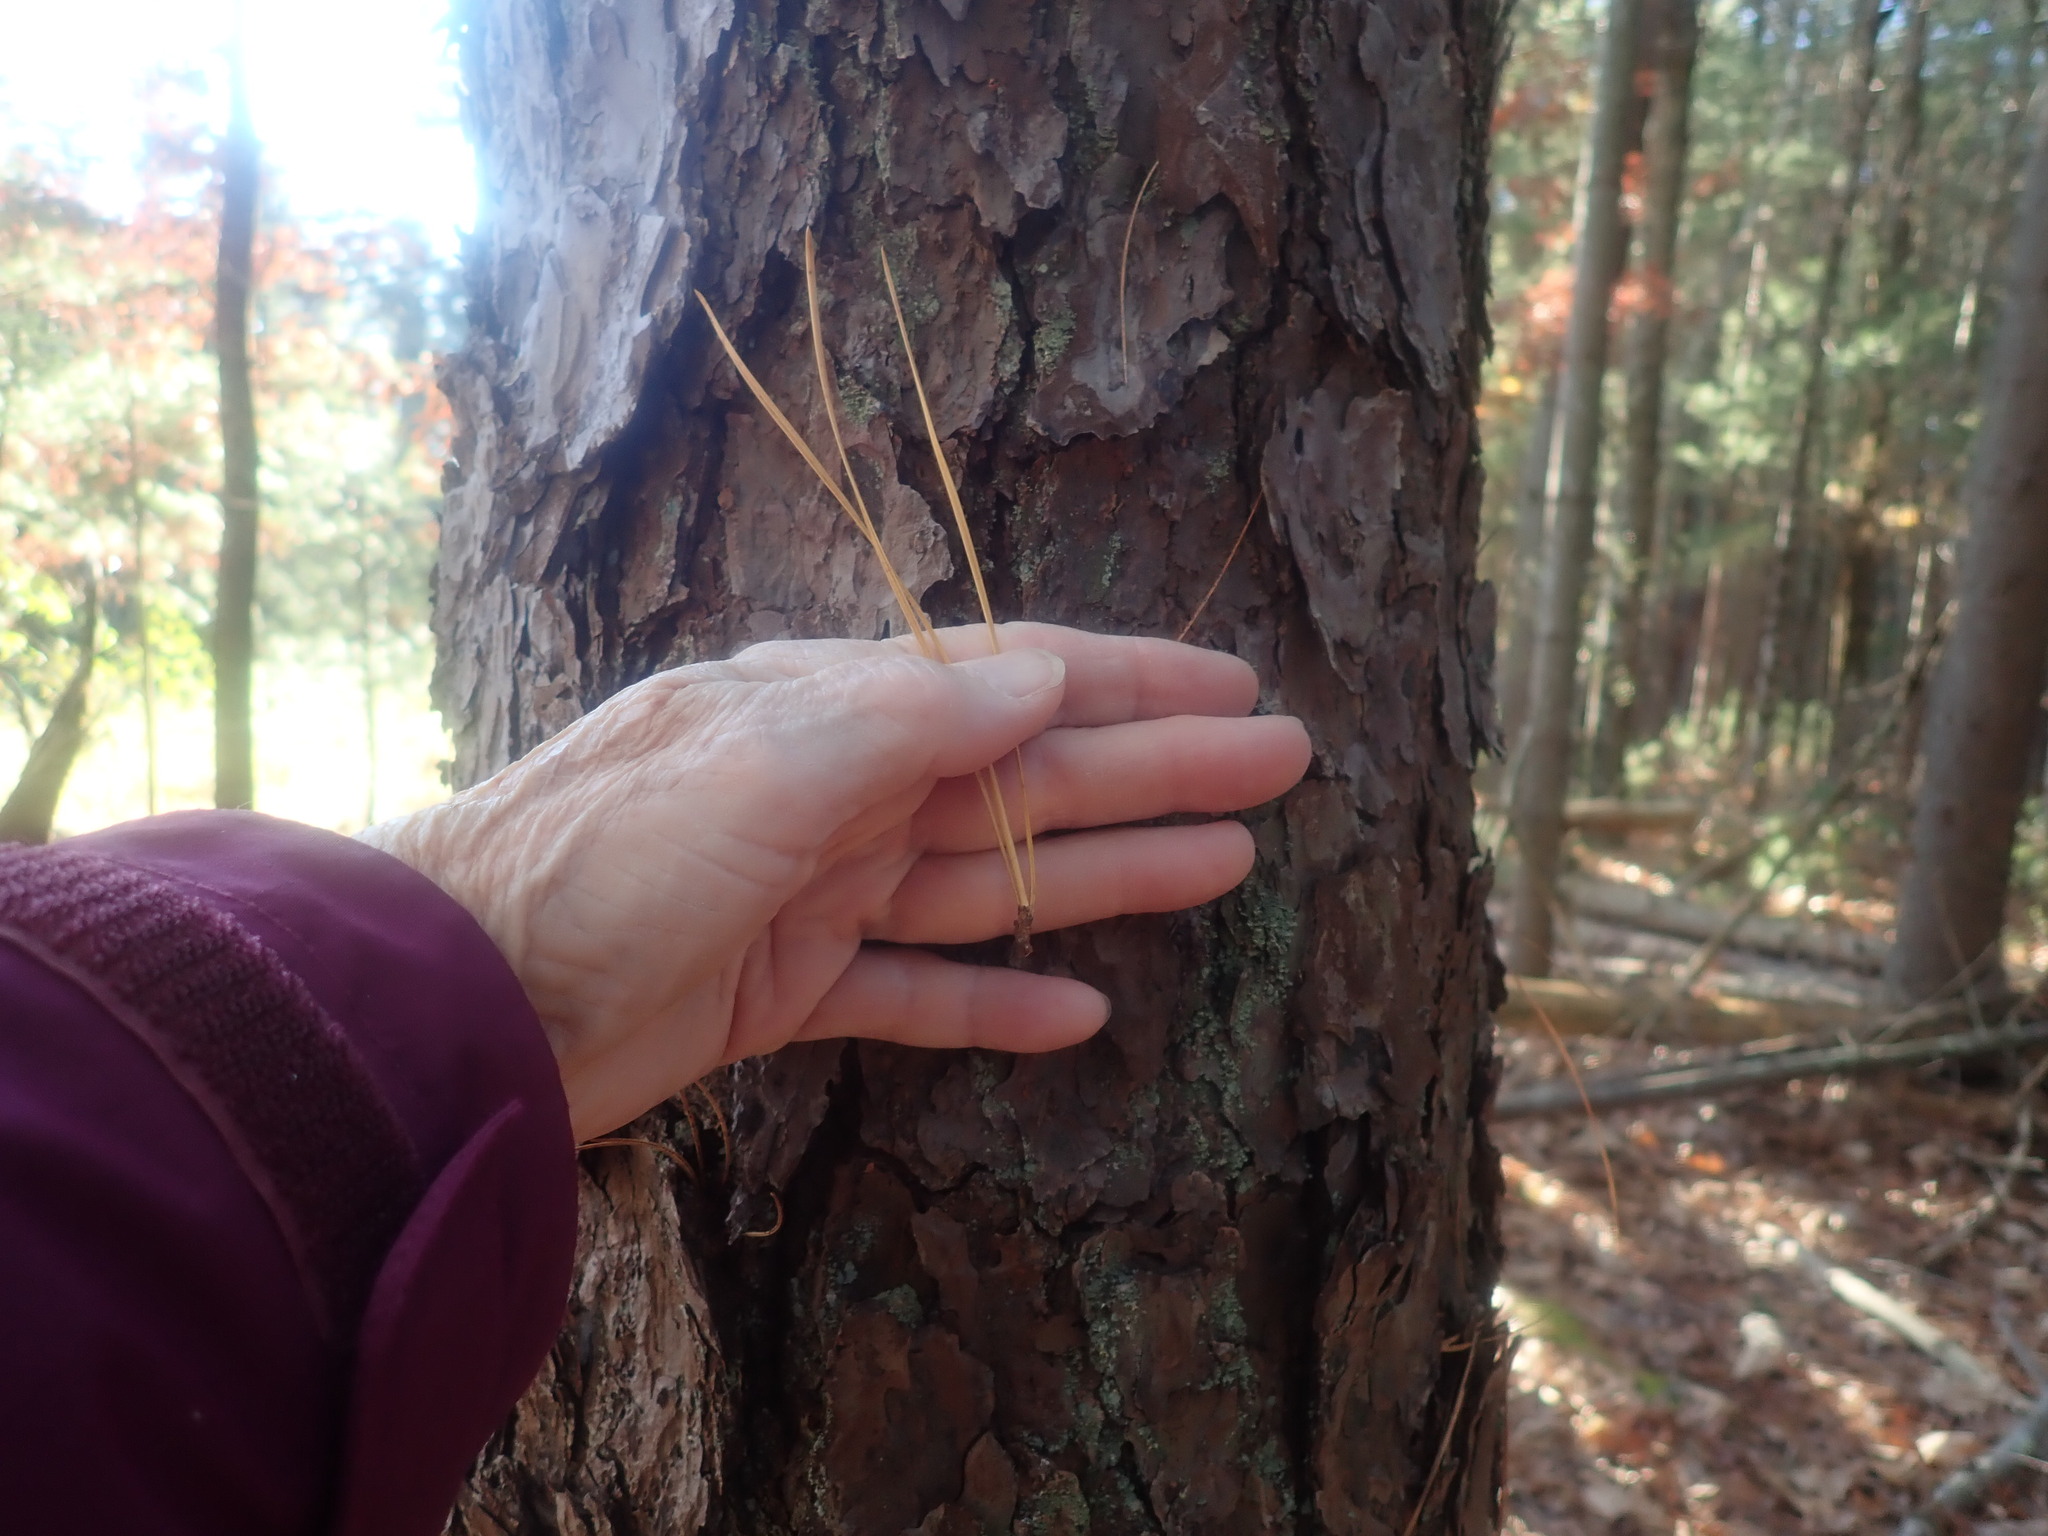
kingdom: Plantae
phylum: Tracheophyta
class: Pinopsida
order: Pinales
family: Pinaceae
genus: Pinus
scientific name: Pinus rigida
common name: Pitch pine
